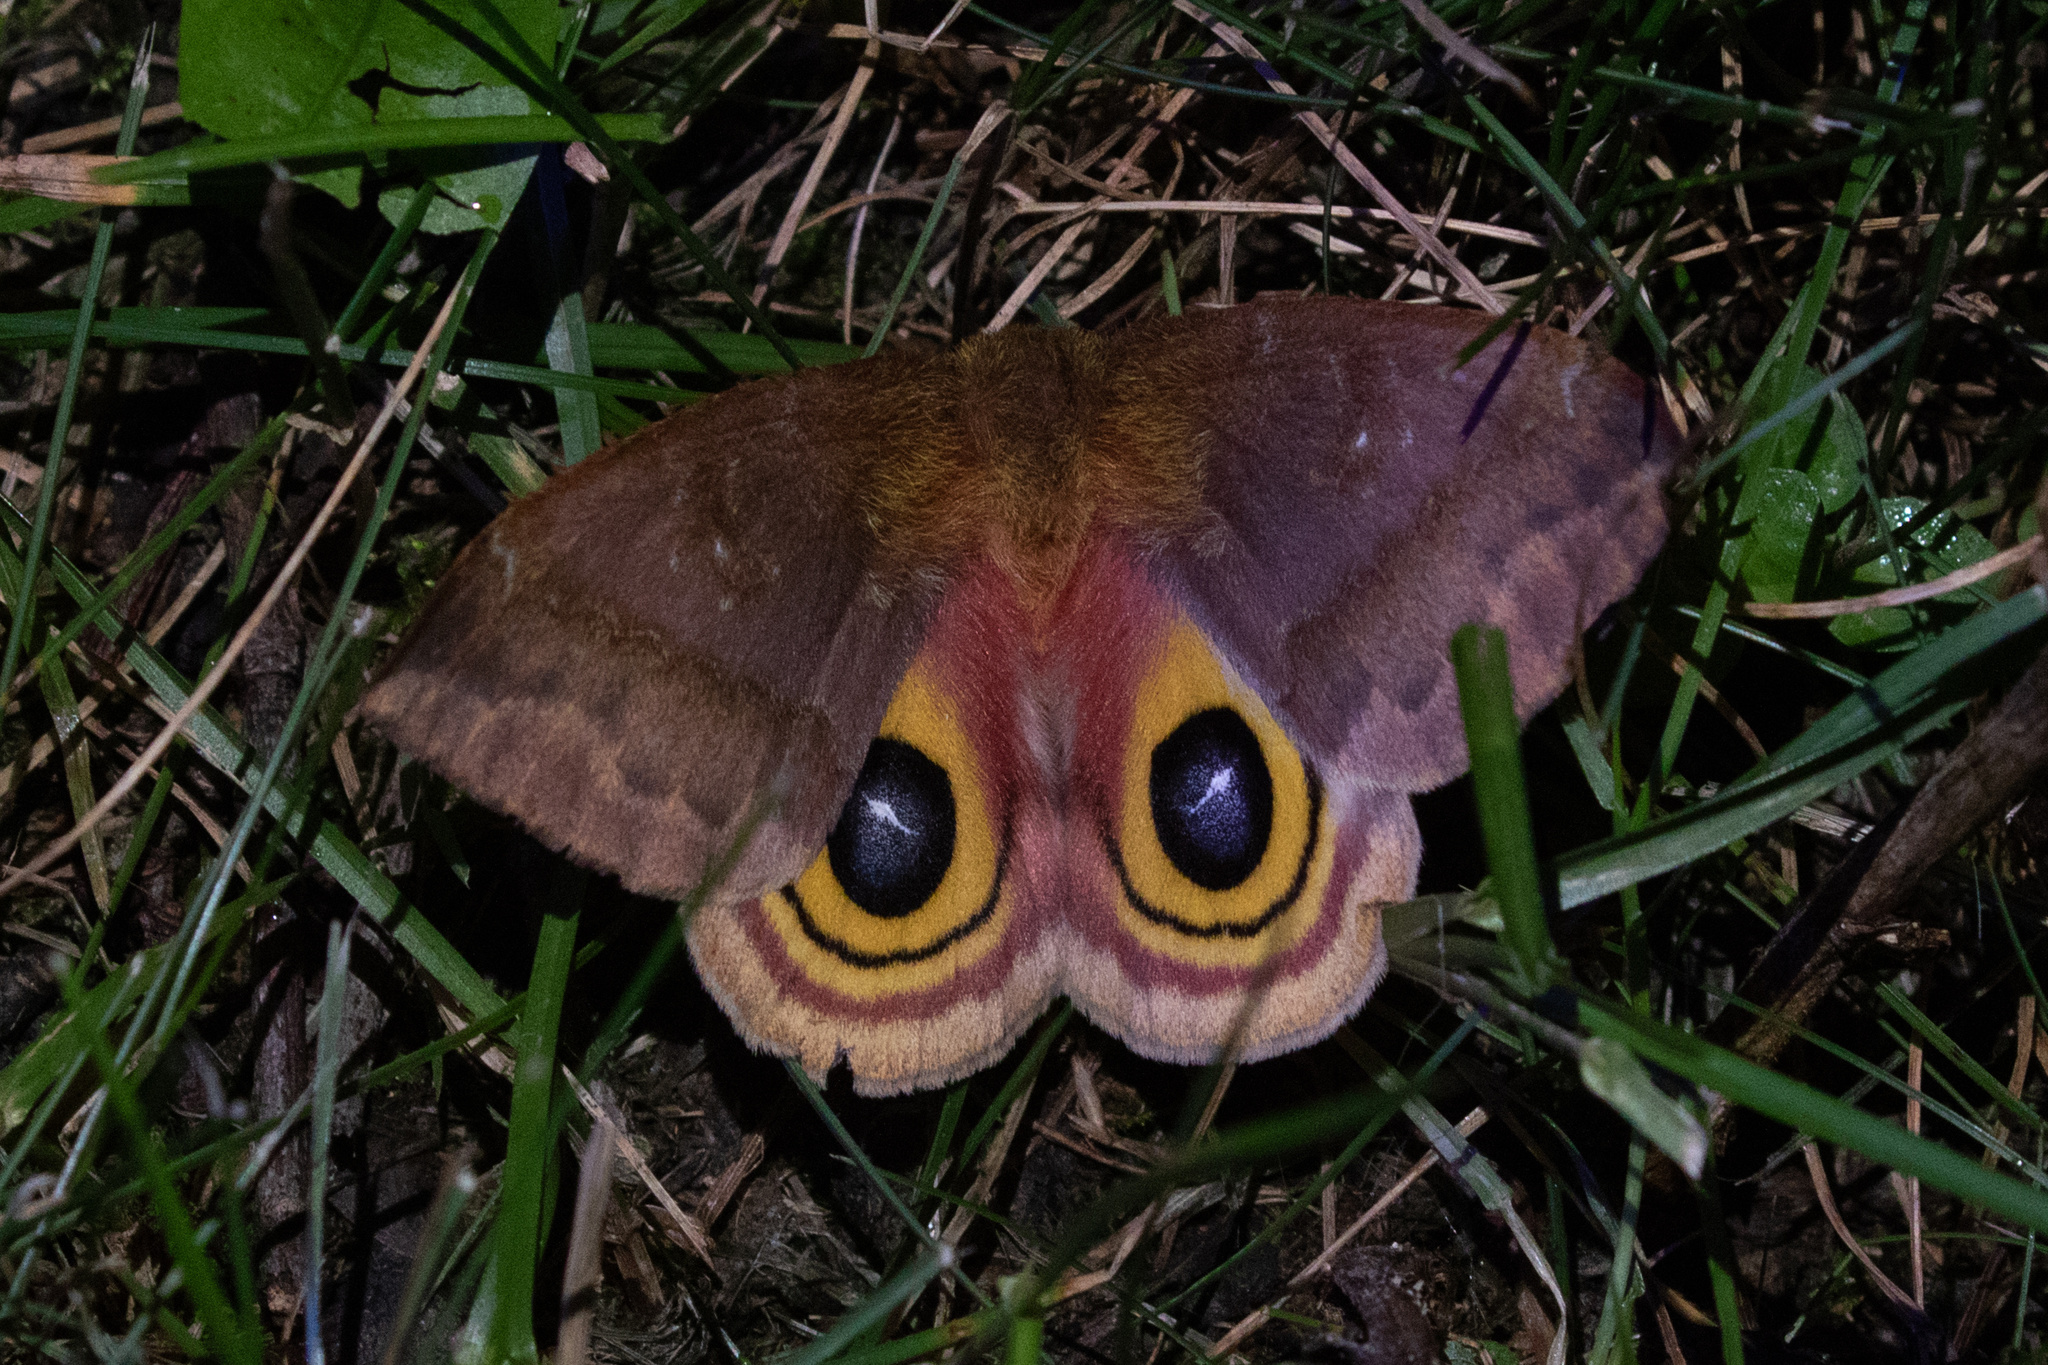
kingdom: Animalia
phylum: Arthropoda
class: Insecta
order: Lepidoptera
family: Saturniidae
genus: Automeris
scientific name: Automeris io
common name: Io moth
